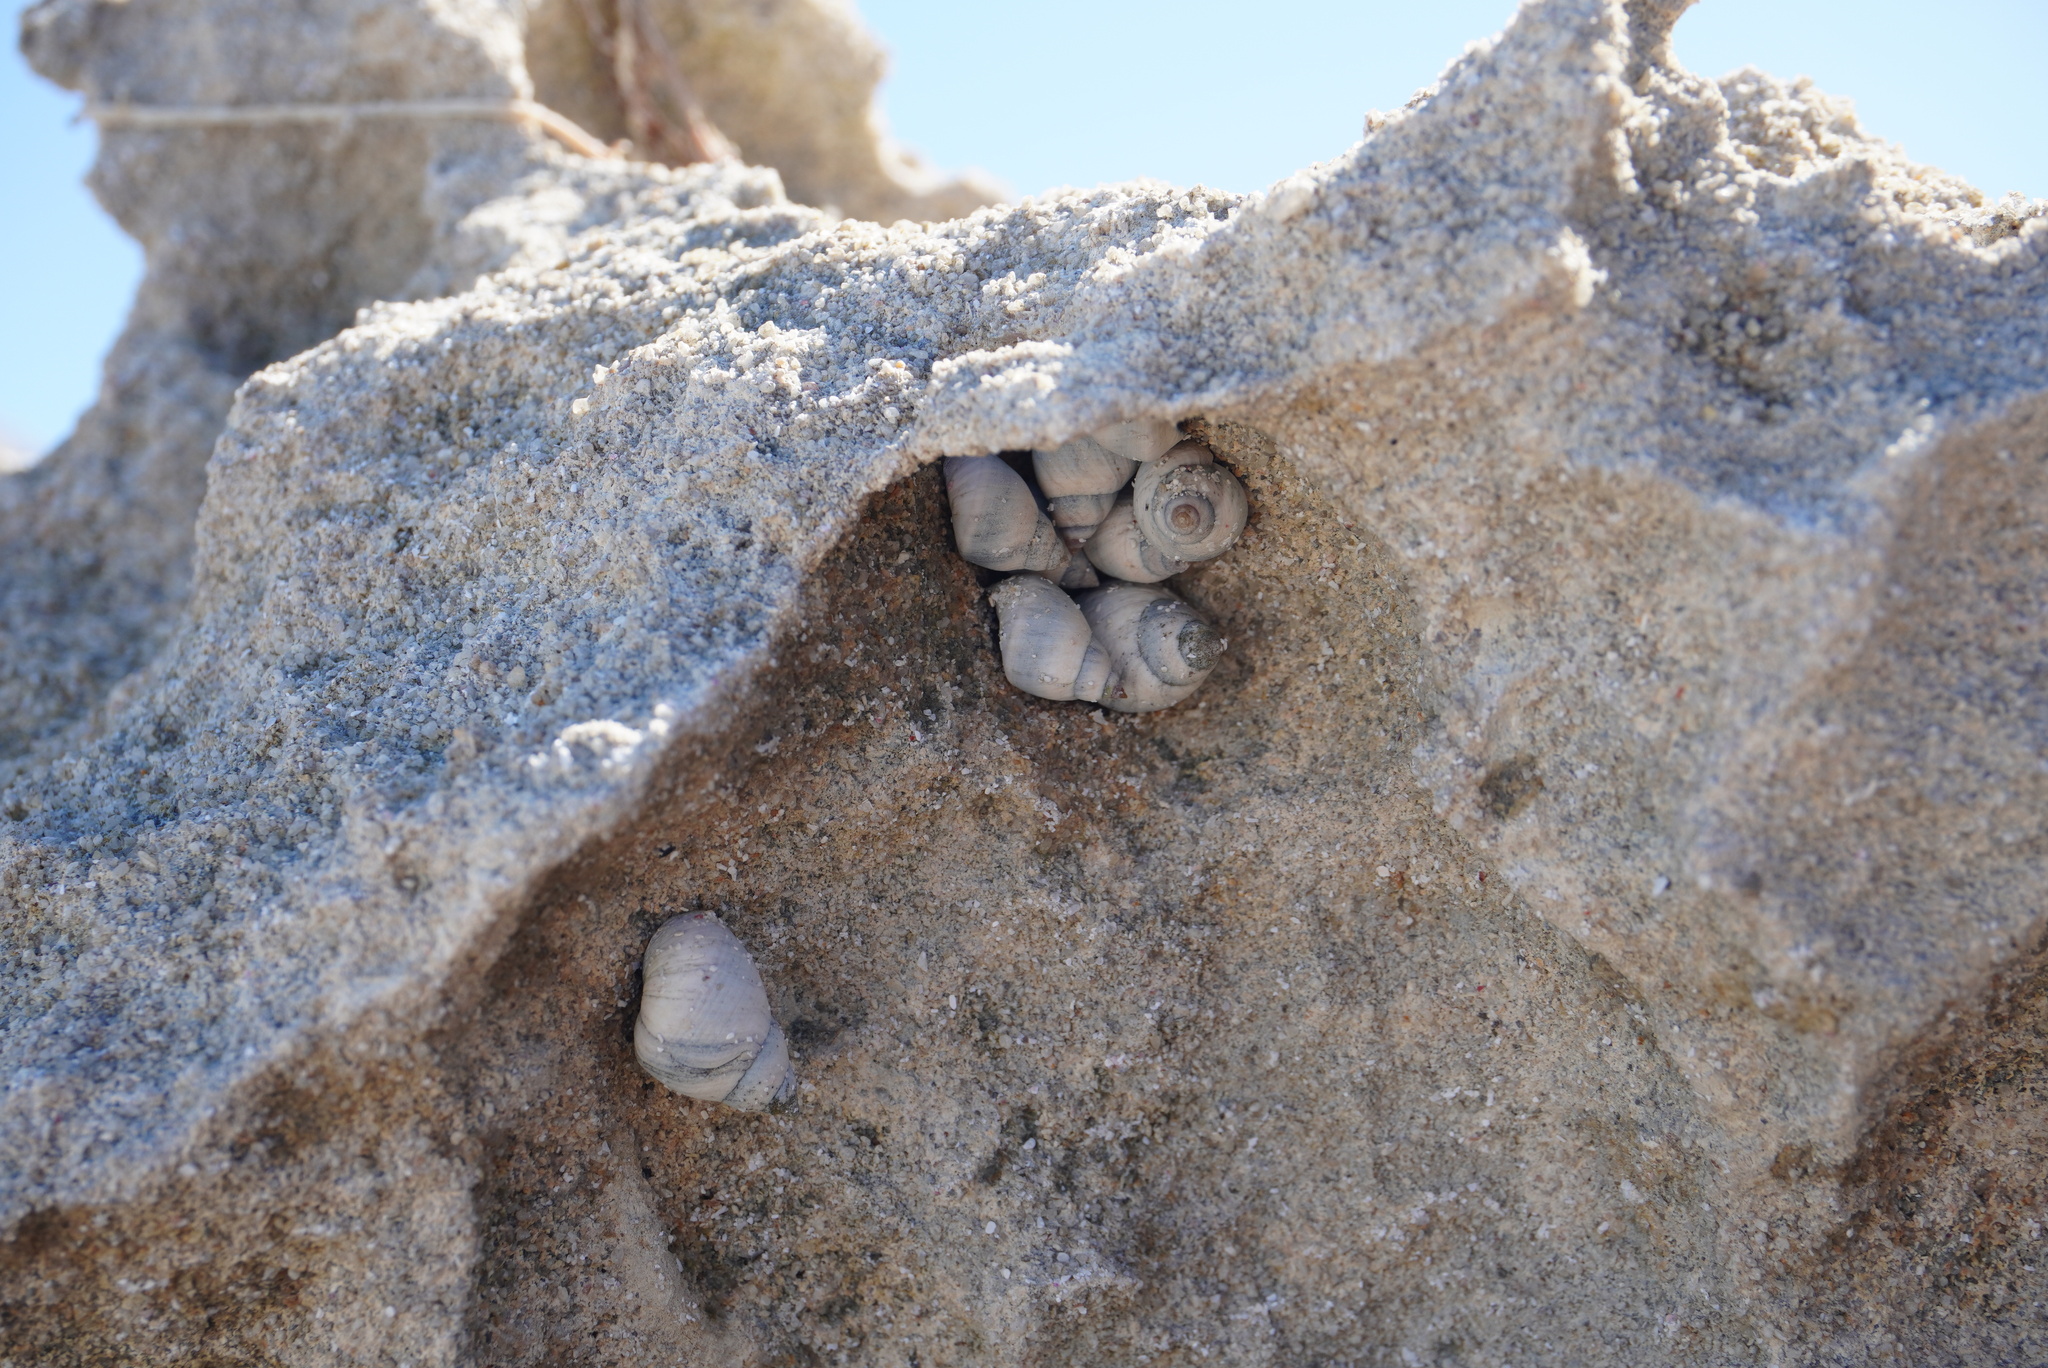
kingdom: Animalia
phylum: Mollusca
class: Gastropoda
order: Littorinimorpha
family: Littorinidae
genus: Austrolittorina
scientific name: Austrolittorina unifasciata
